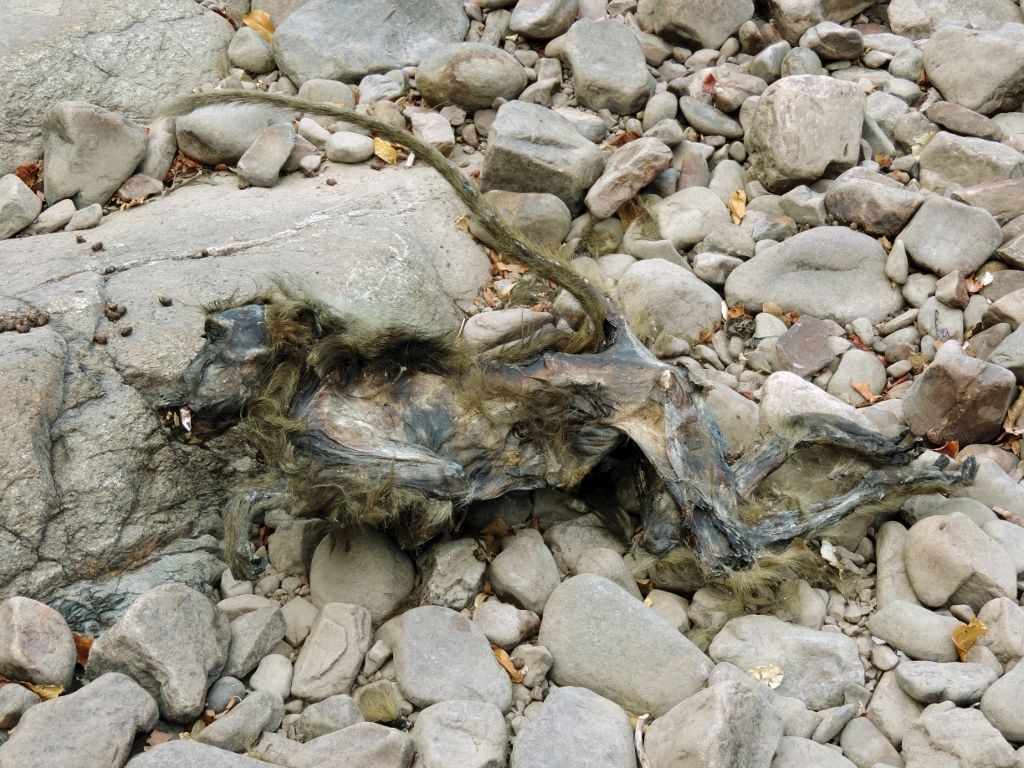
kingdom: Animalia
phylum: Chordata
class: Mammalia
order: Primates
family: Cercopithecidae
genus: Papio
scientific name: Papio ursinus
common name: Chacma baboon
